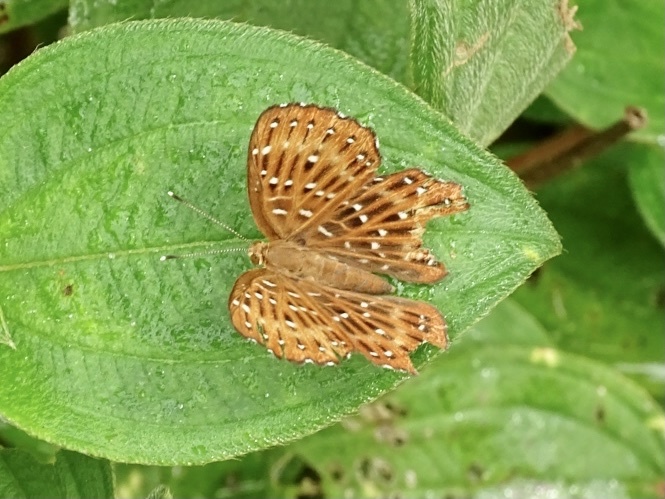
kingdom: Animalia
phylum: Arthropoda
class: Insecta
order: Lepidoptera
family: Riodinidae
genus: Zemeros
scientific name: Zemeros flegyas
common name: Punchinello
